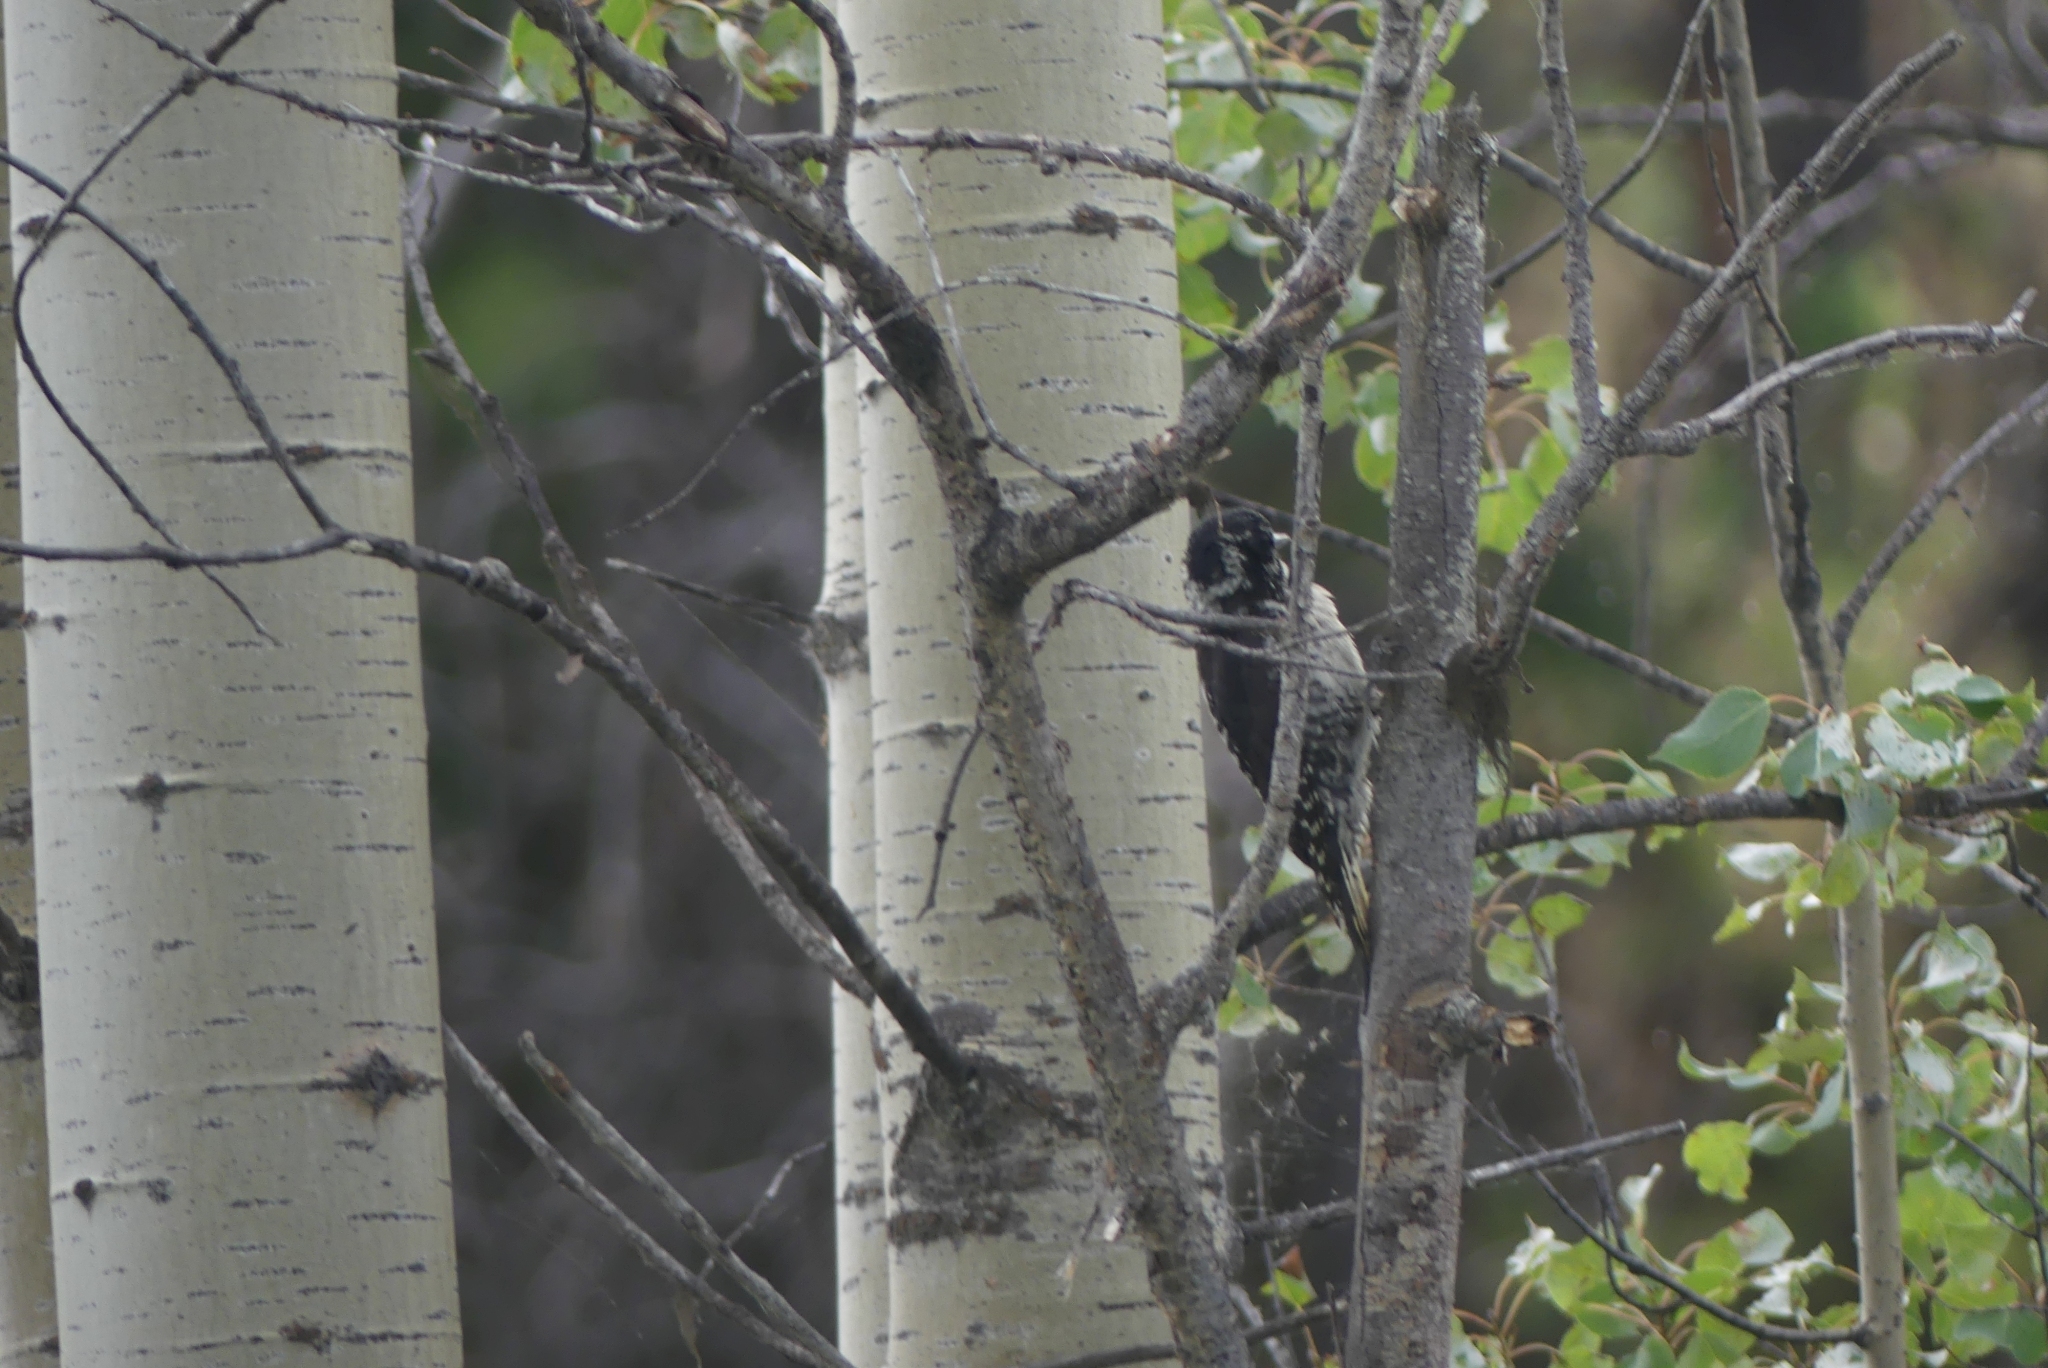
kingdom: Animalia
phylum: Chordata
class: Aves
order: Piciformes
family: Picidae
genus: Picoides
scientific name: Picoides dorsalis
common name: American three-toed woodpecker
